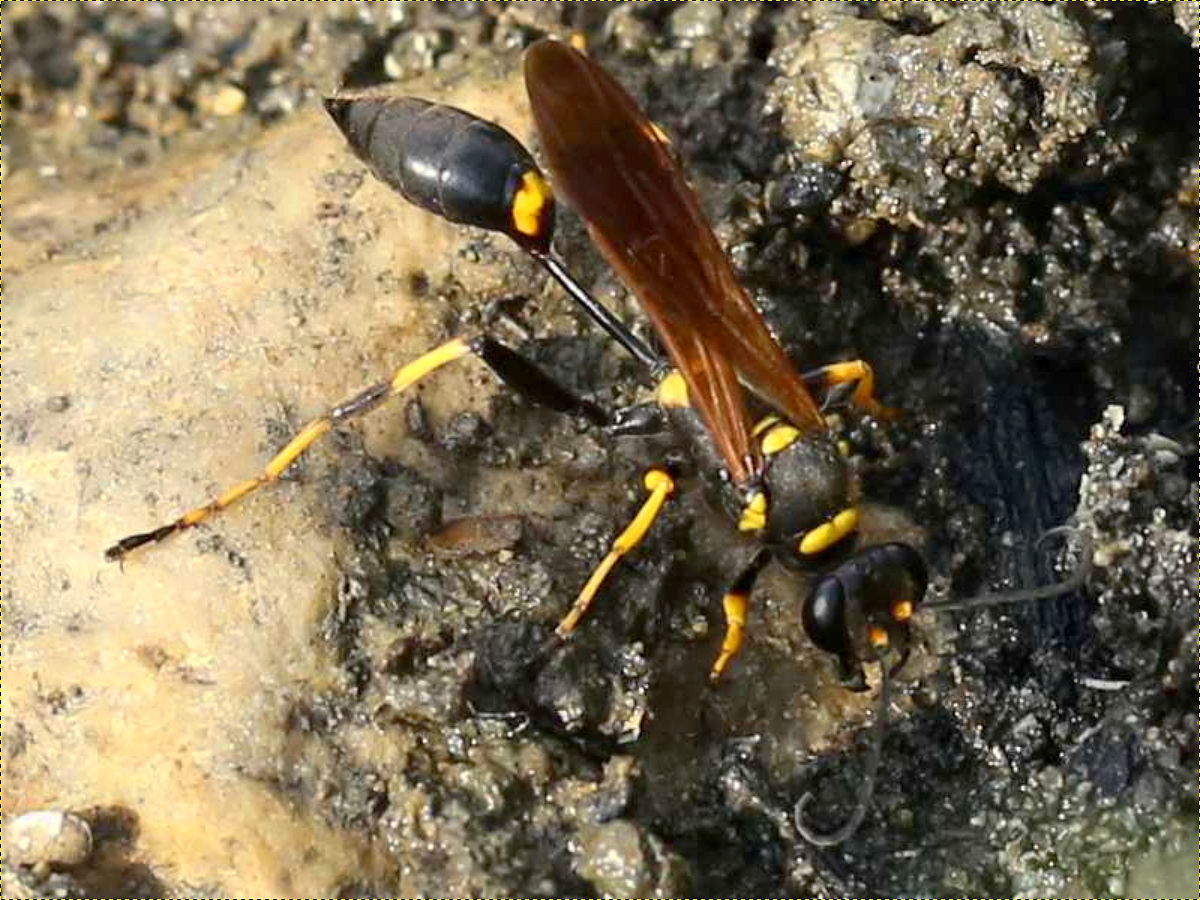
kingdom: Animalia
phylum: Arthropoda
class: Insecta
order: Hymenoptera
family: Sphecidae
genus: Sceliphron
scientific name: Sceliphron caementarium
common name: Mud dauber
